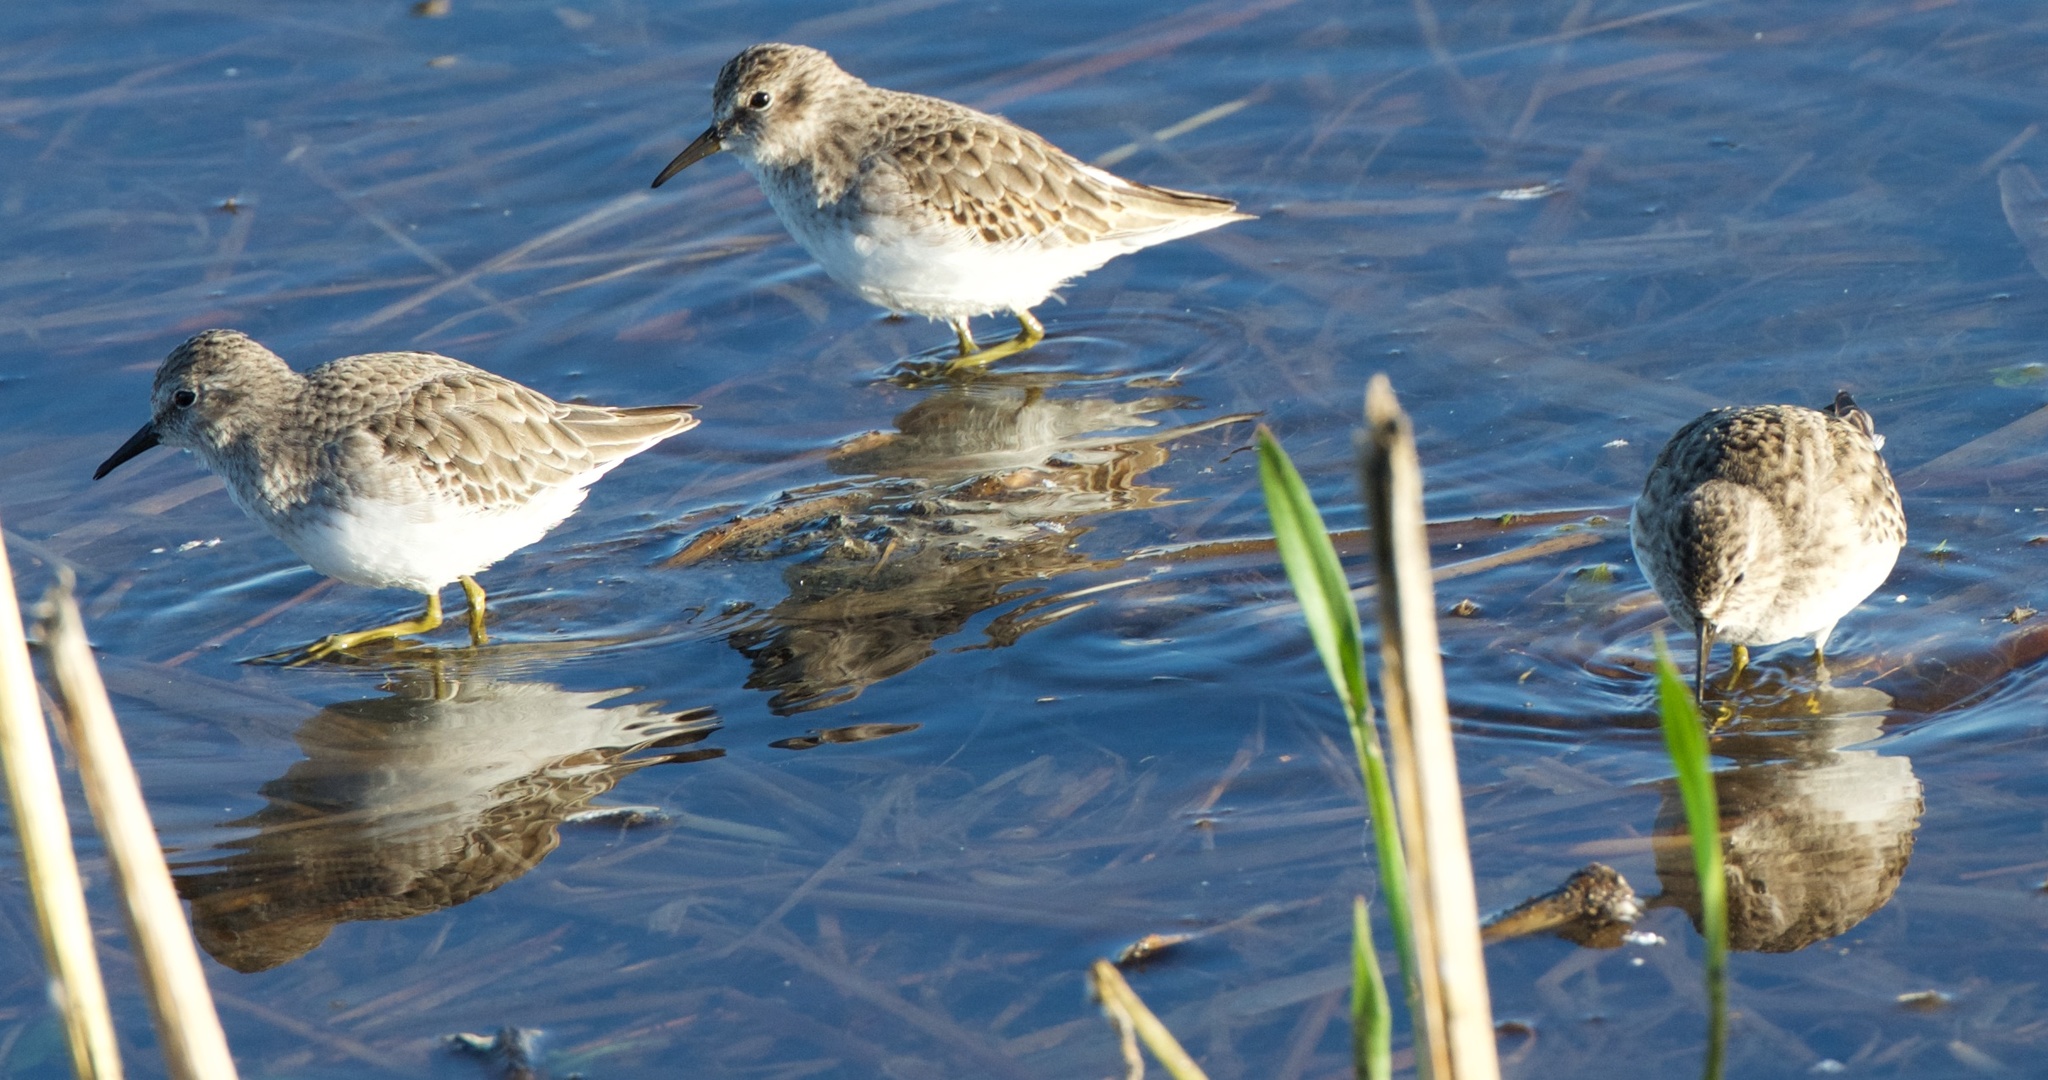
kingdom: Animalia
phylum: Chordata
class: Aves
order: Charadriiformes
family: Scolopacidae
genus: Calidris
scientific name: Calidris minutilla
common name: Least sandpiper
